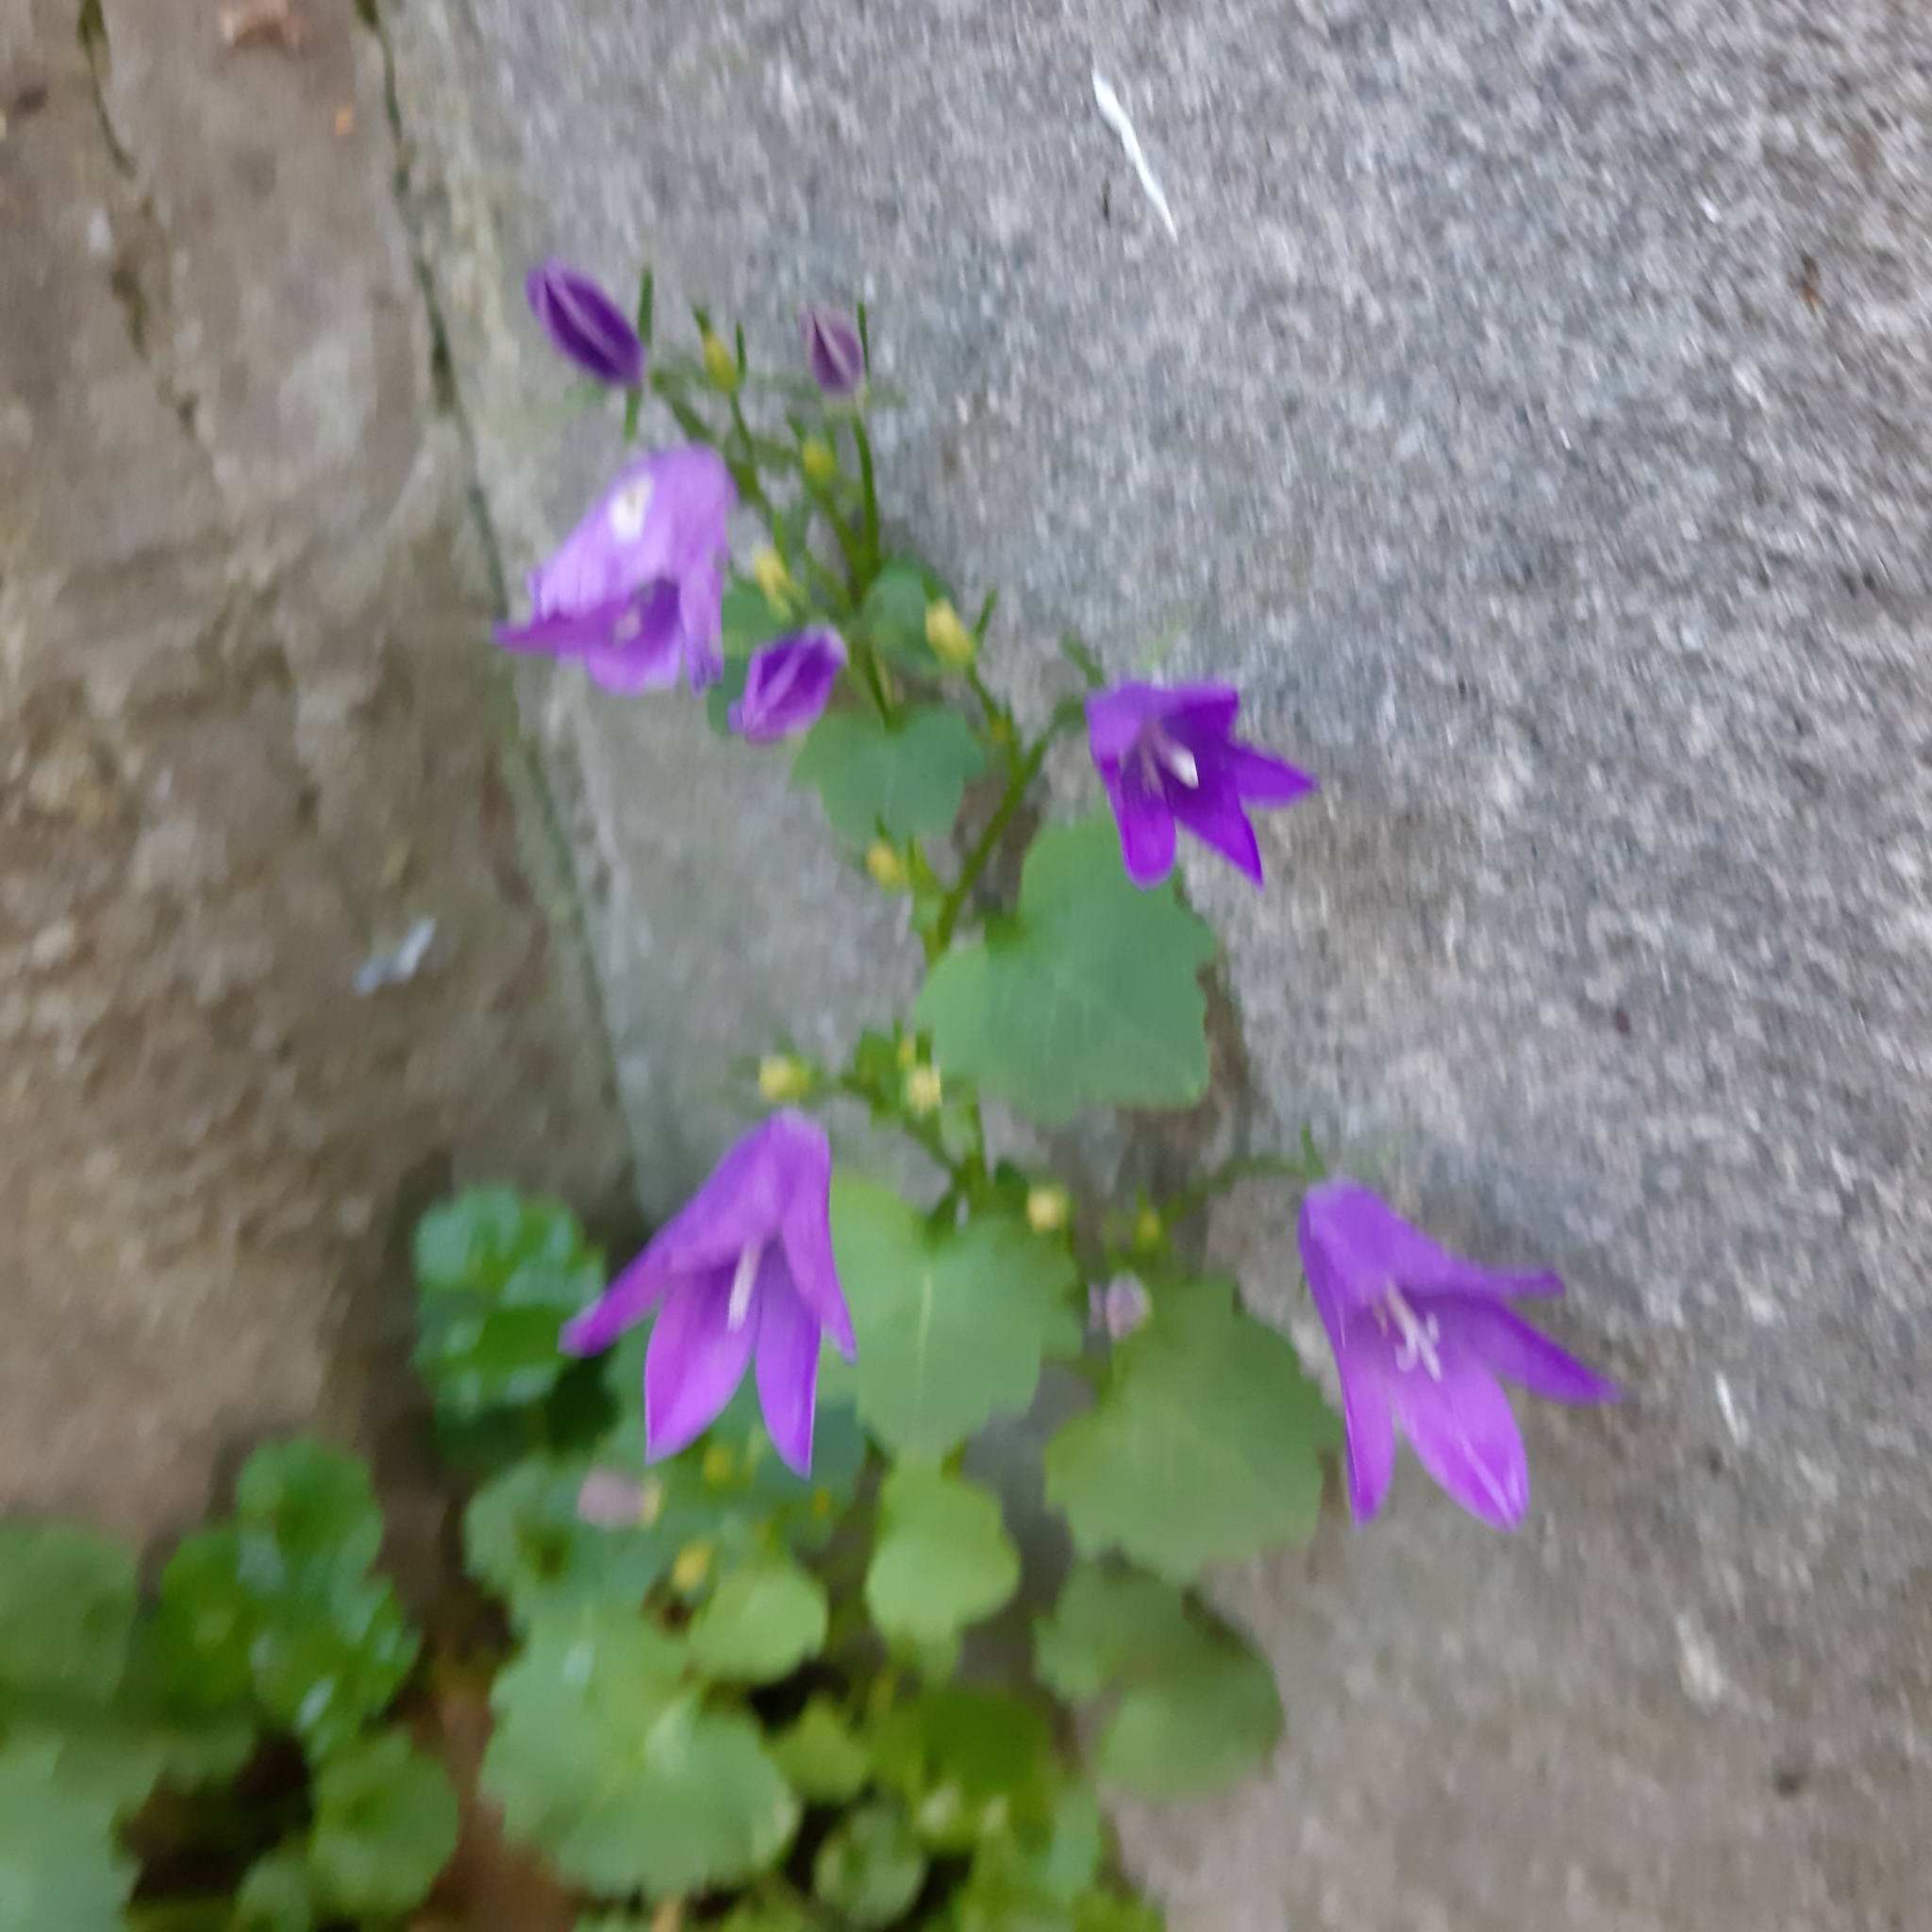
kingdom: Plantae
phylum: Tracheophyta
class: Magnoliopsida
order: Asterales
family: Campanulaceae
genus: Campanula
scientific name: Campanula poscharskyana
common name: Trailing bellflower
